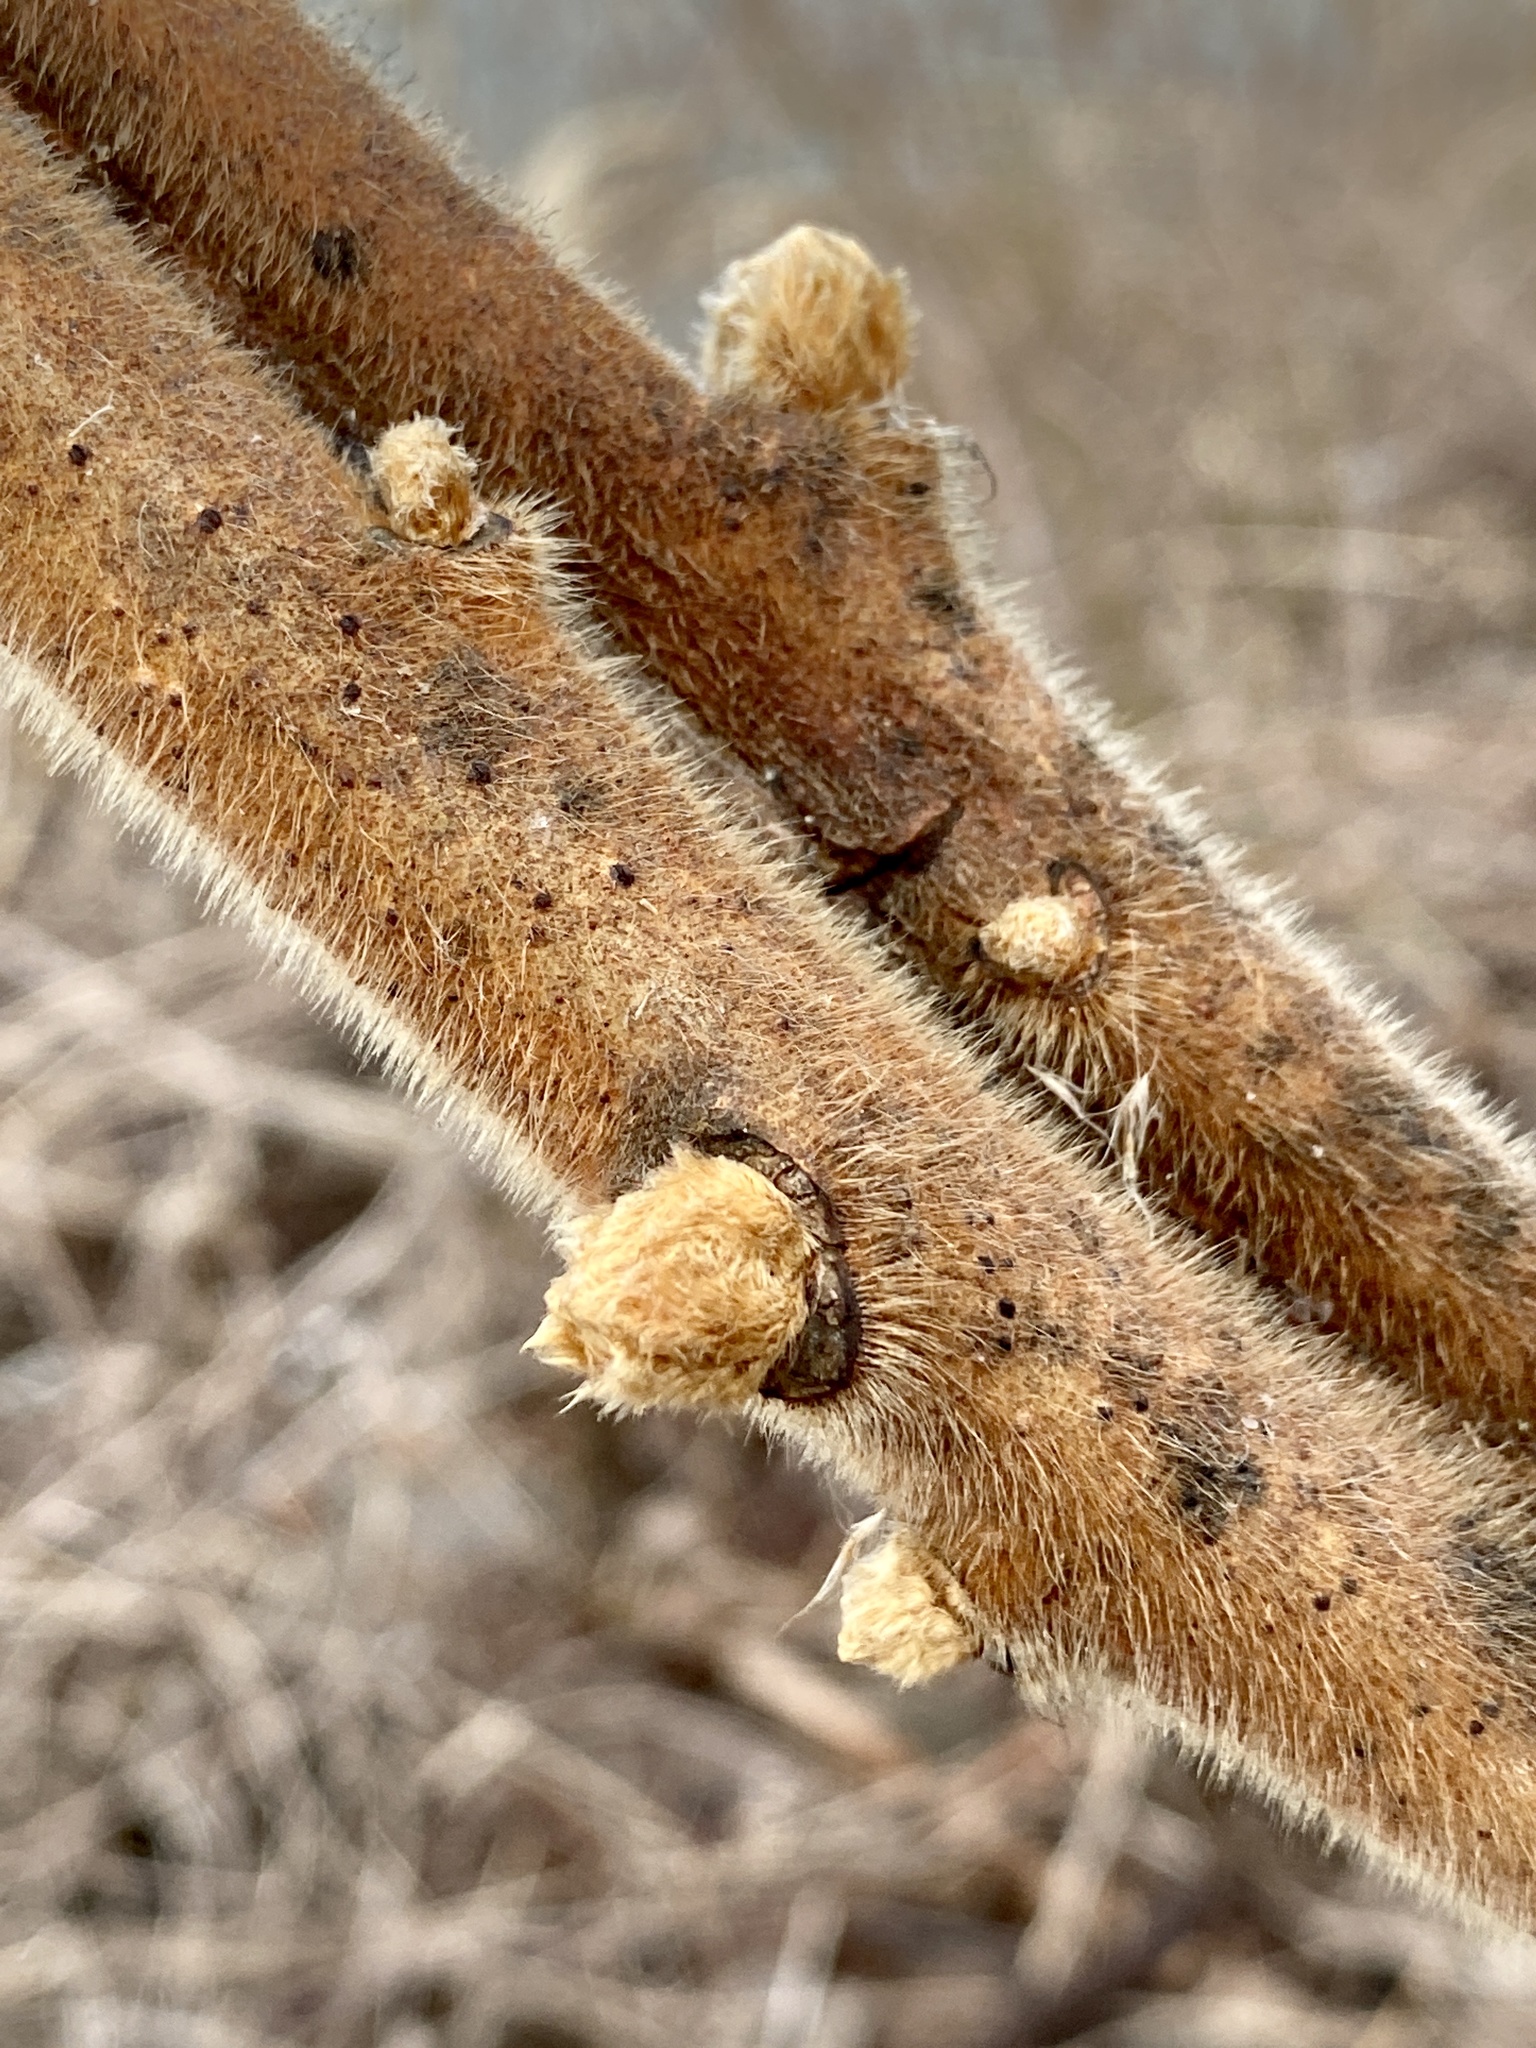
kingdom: Plantae
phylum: Tracheophyta
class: Magnoliopsida
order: Sapindales
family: Anacardiaceae
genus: Rhus
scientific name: Rhus typhina
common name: Staghorn sumac
